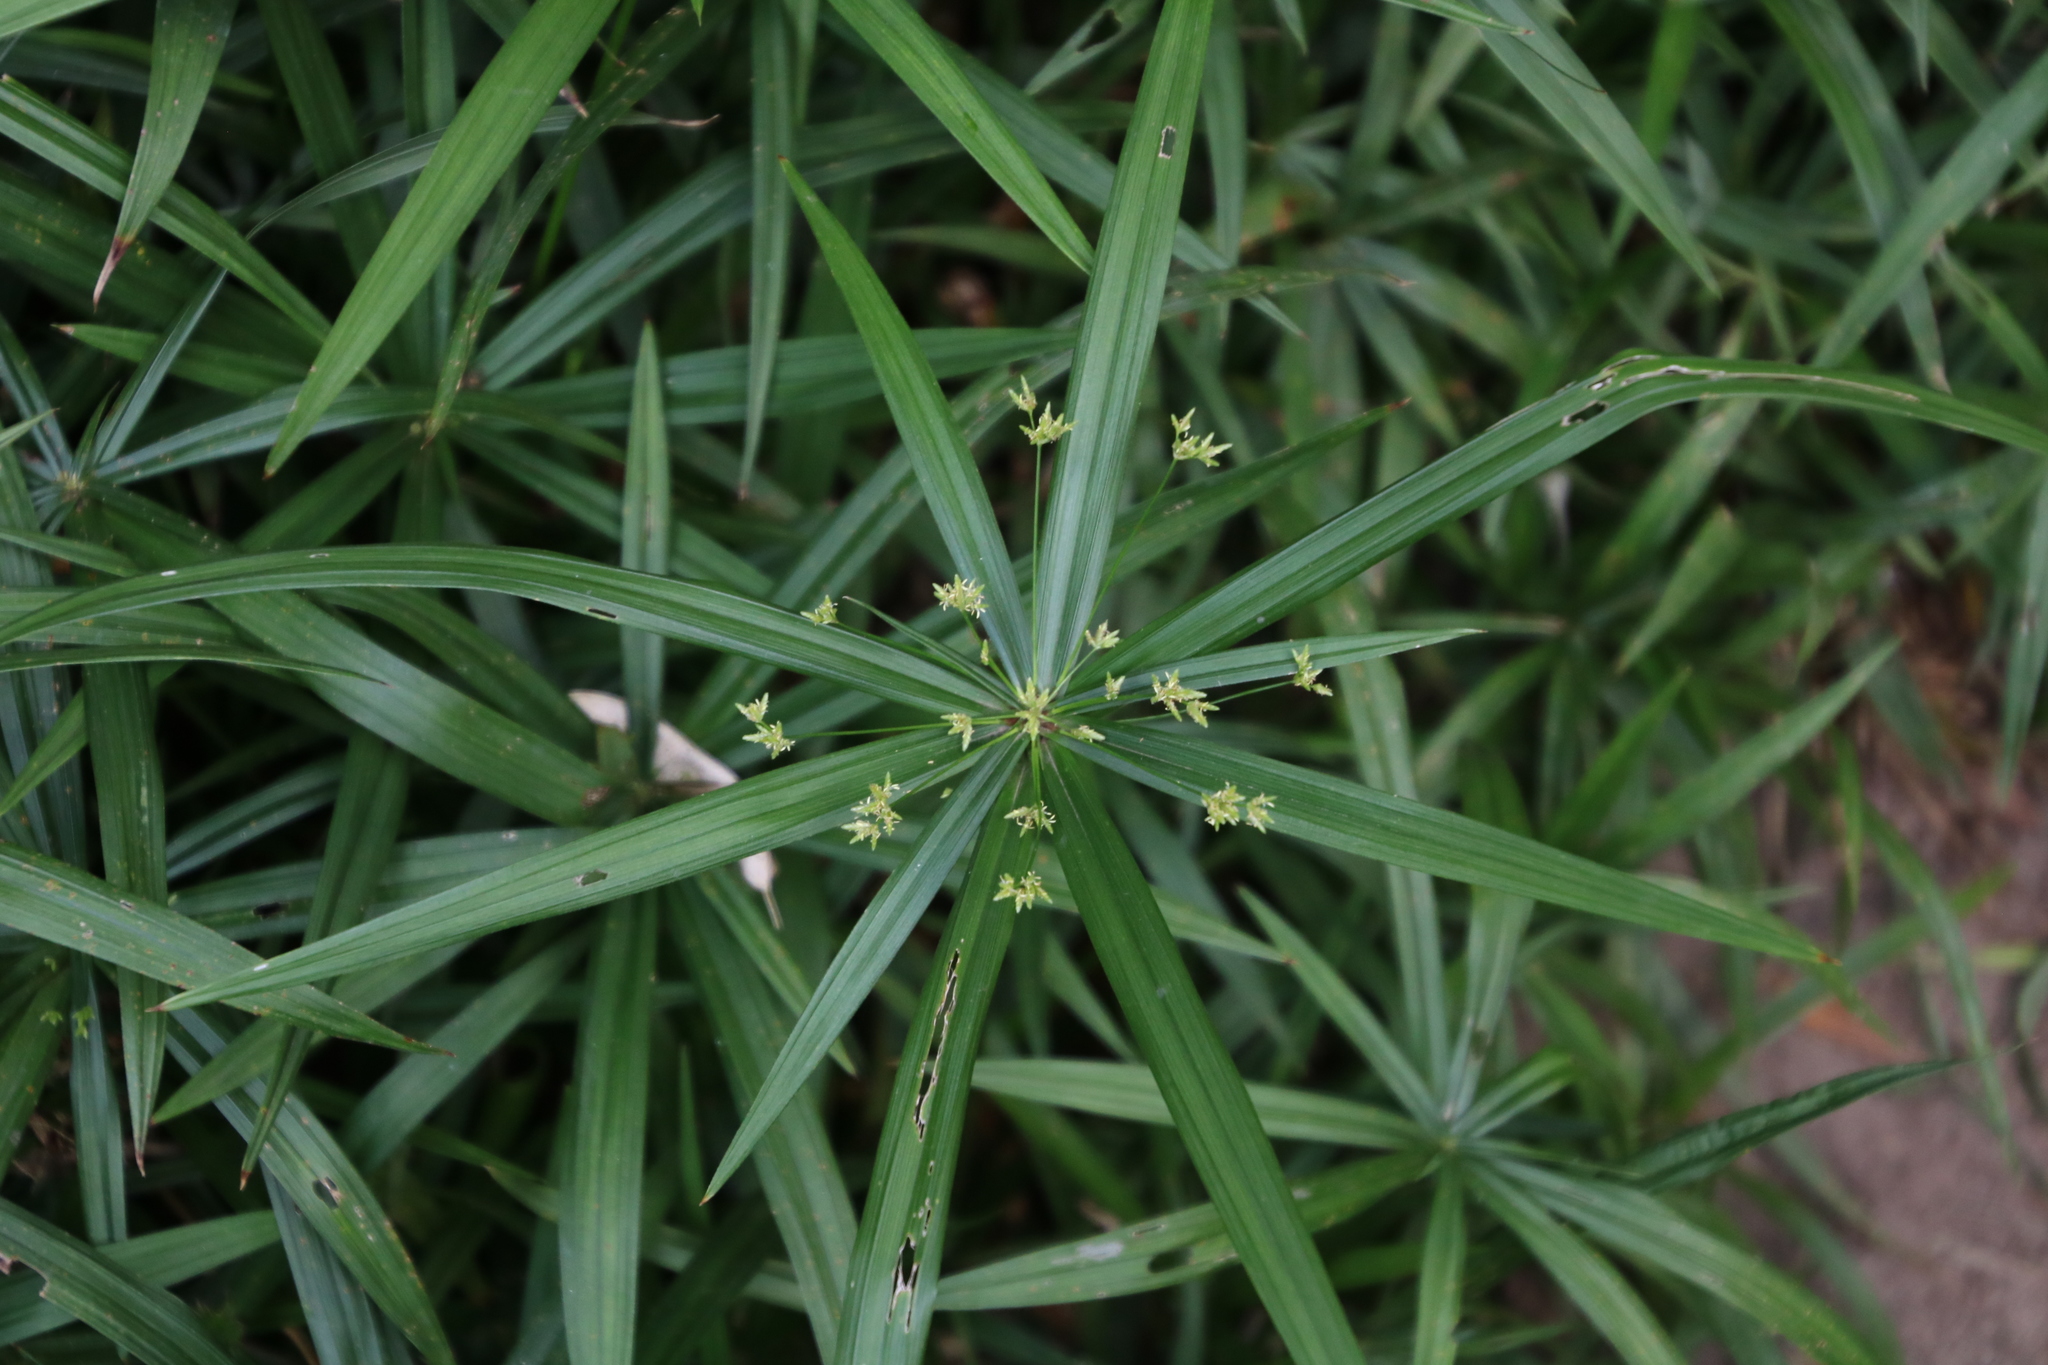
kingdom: Plantae
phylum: Tracheophyta
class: Liliopsida
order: Poales
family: Cyperaceae
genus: Cyperus
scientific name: Cyperus albostriatus
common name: Dwarf umbrella-grass
